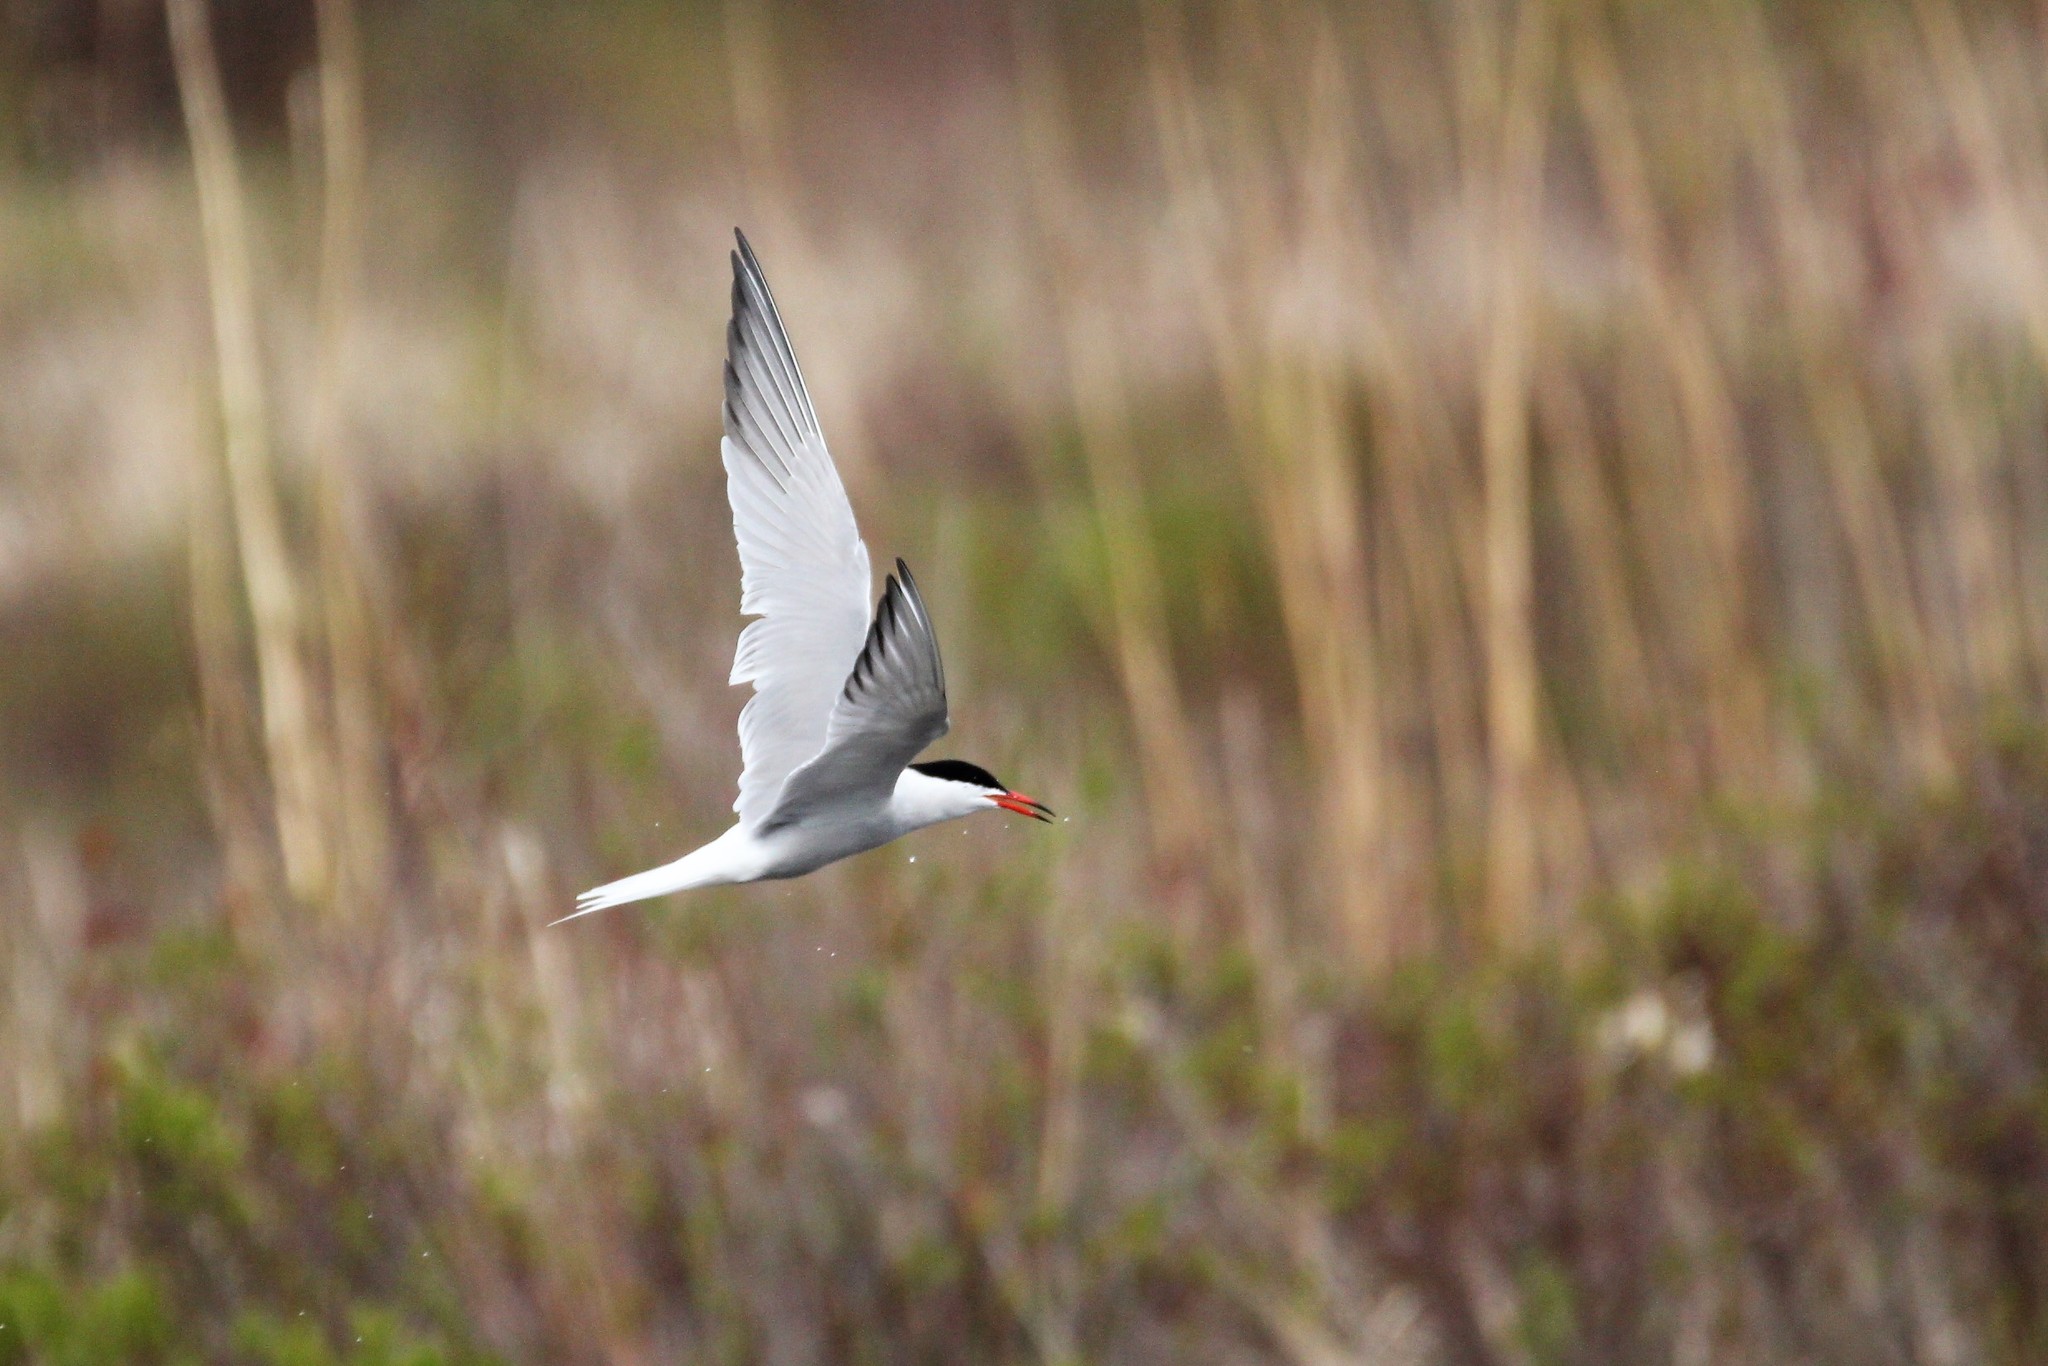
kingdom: Animalia
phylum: Chordata
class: Aves
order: Charadriiformes
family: Laridae
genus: Sterna
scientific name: Sterna hirundo
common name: Common tern
